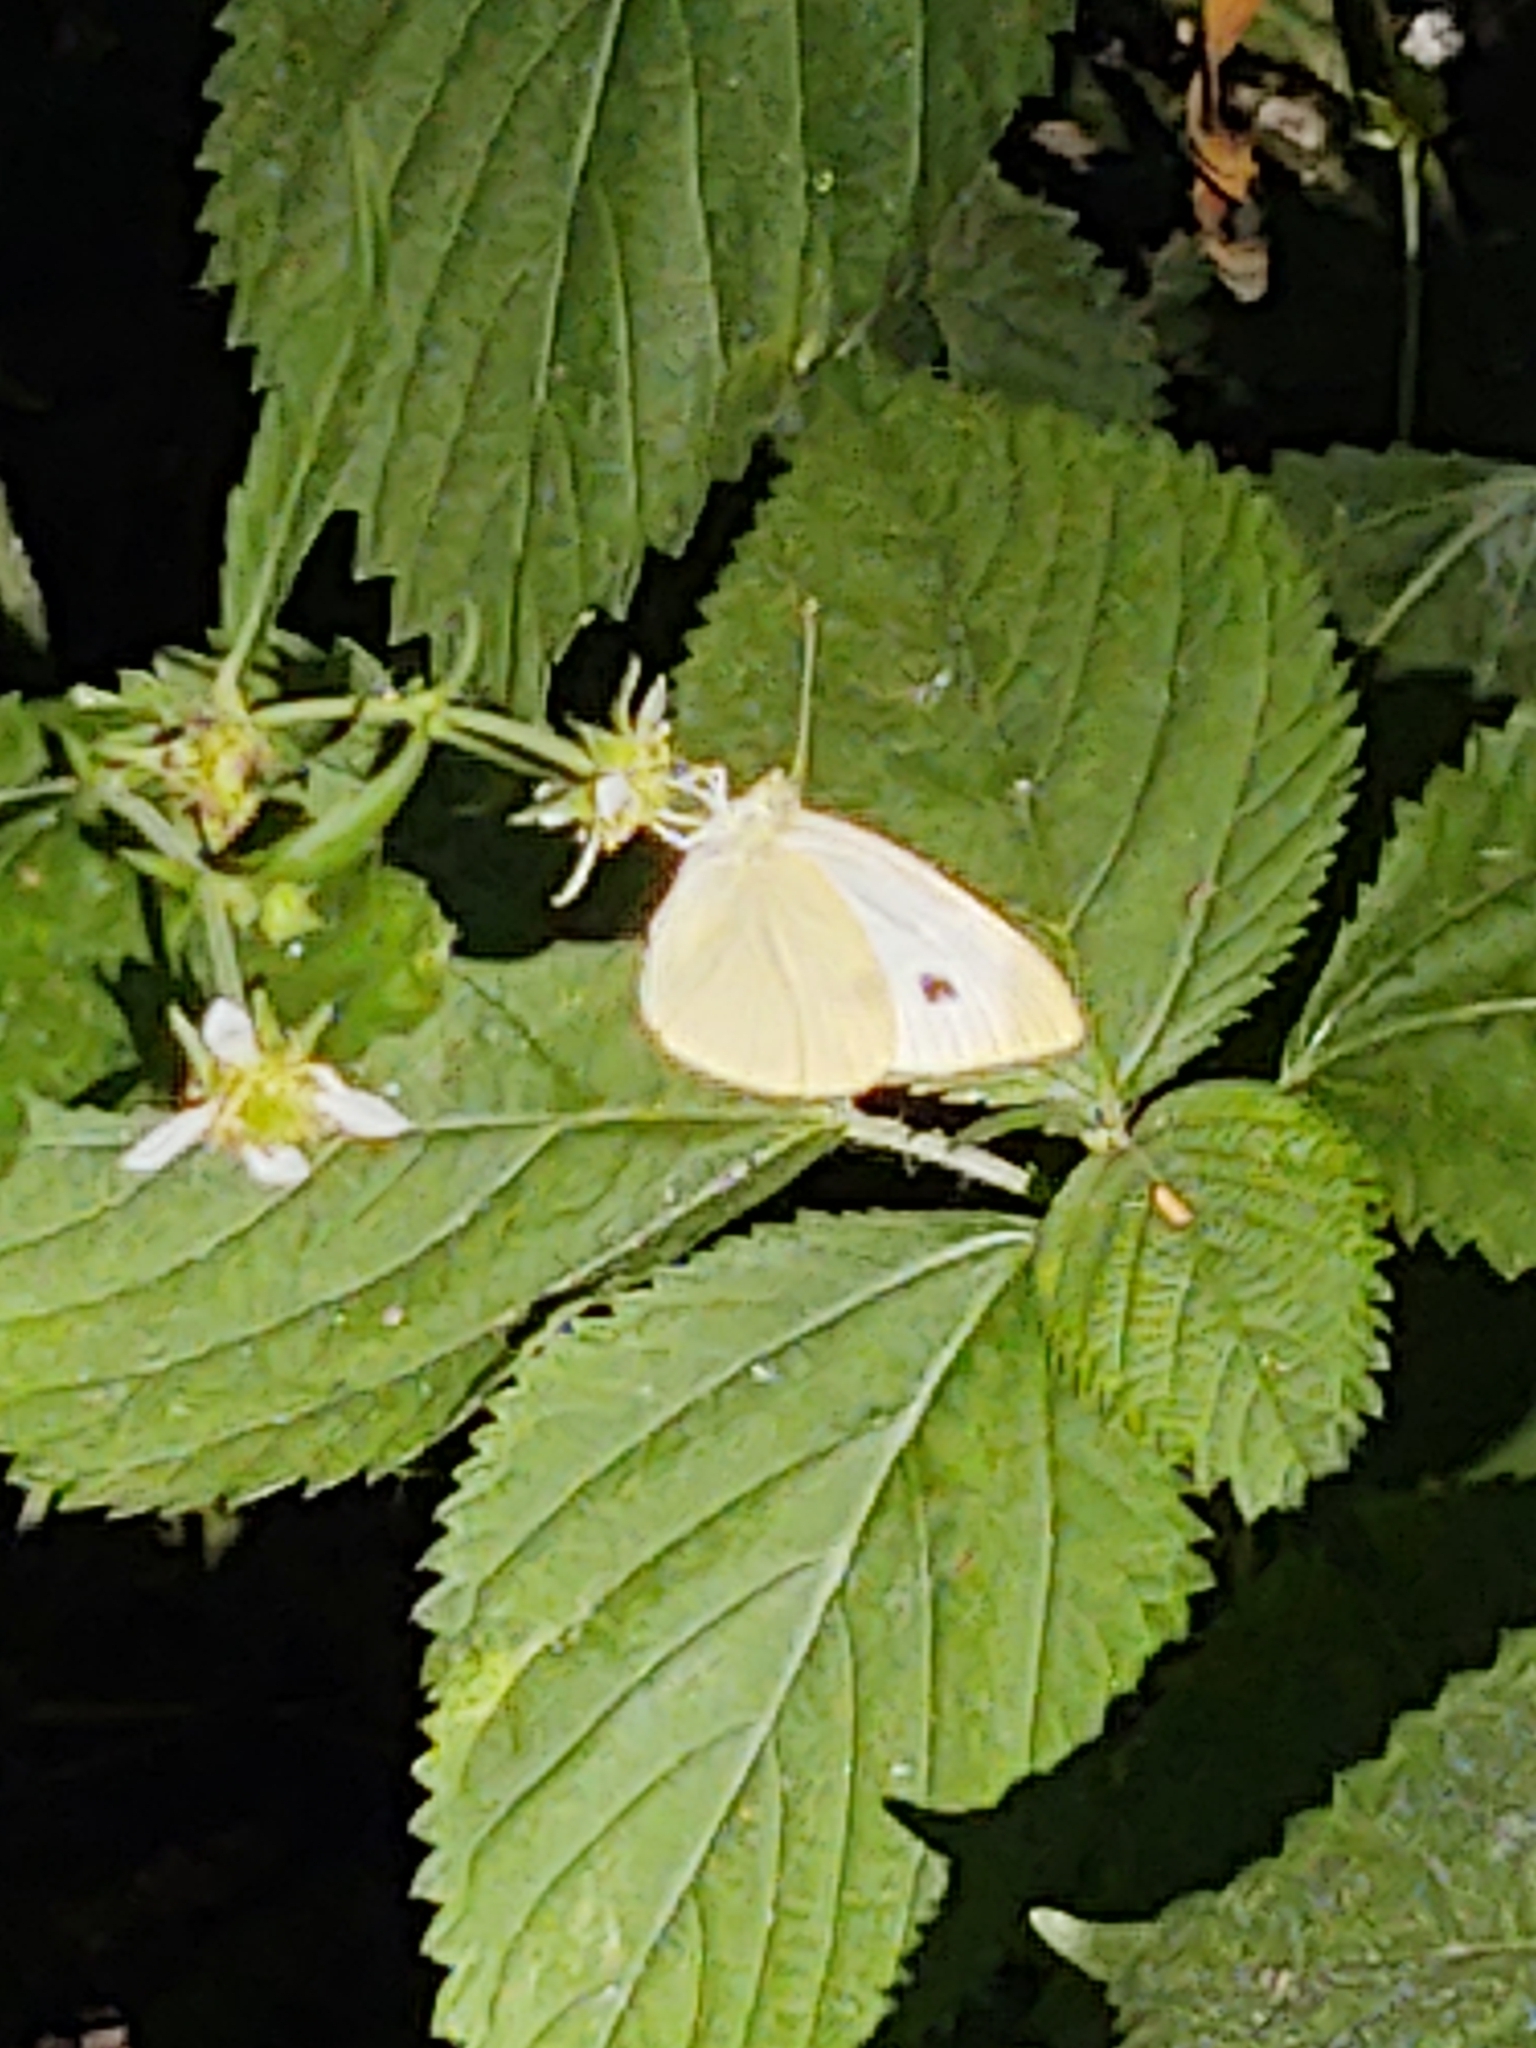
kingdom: Animalia
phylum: Arthropoda
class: Insecta
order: Lepidoptera
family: Pieridae
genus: Pieris
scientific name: Pieris rapae
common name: Small white
